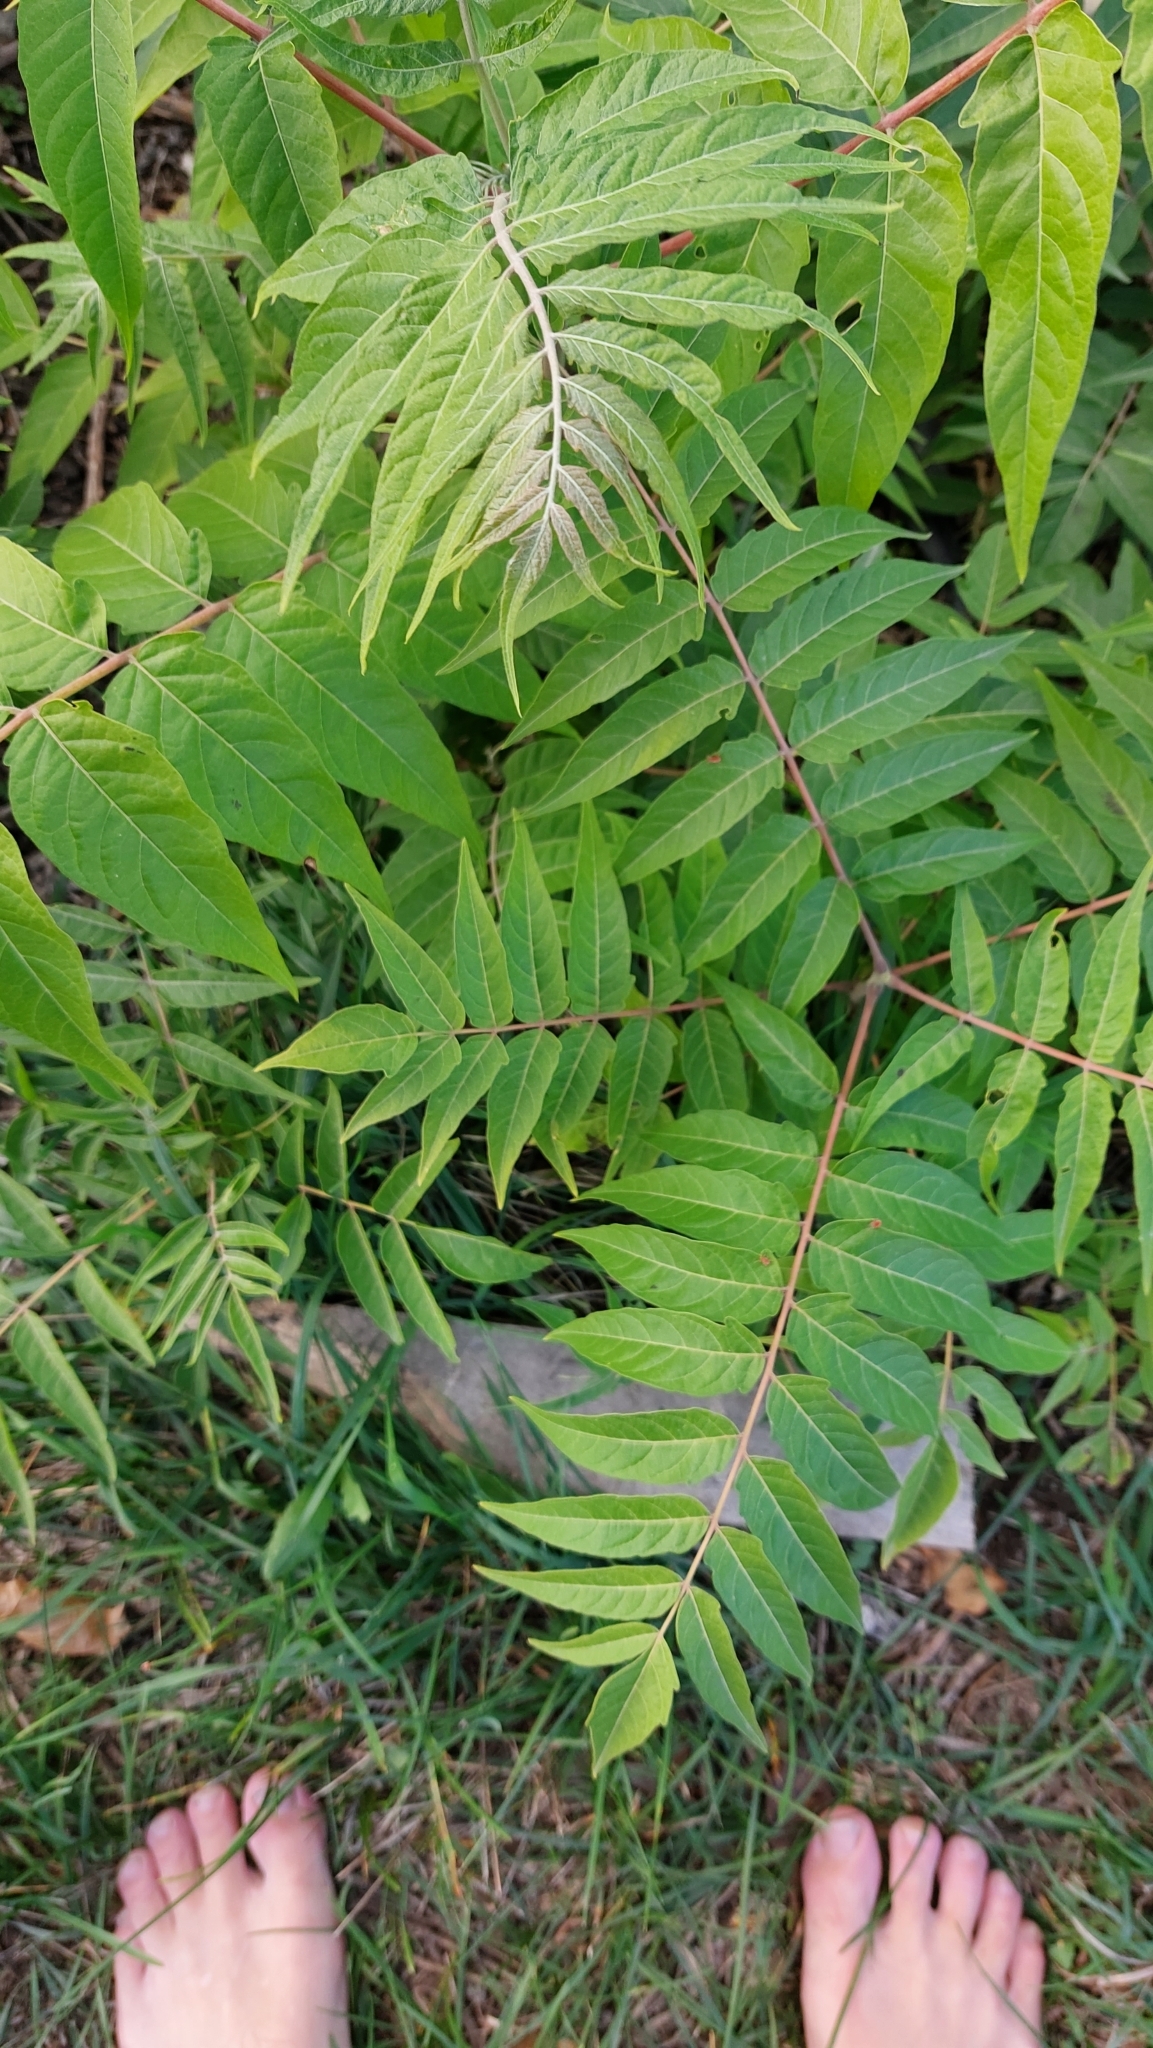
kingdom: Plantae
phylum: Tracheophyta
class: Magnoliopsida
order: Sapindales
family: Simaroubaceae
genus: Ailanthus
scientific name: Ailanthus altissima
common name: Tree-of-heaven
